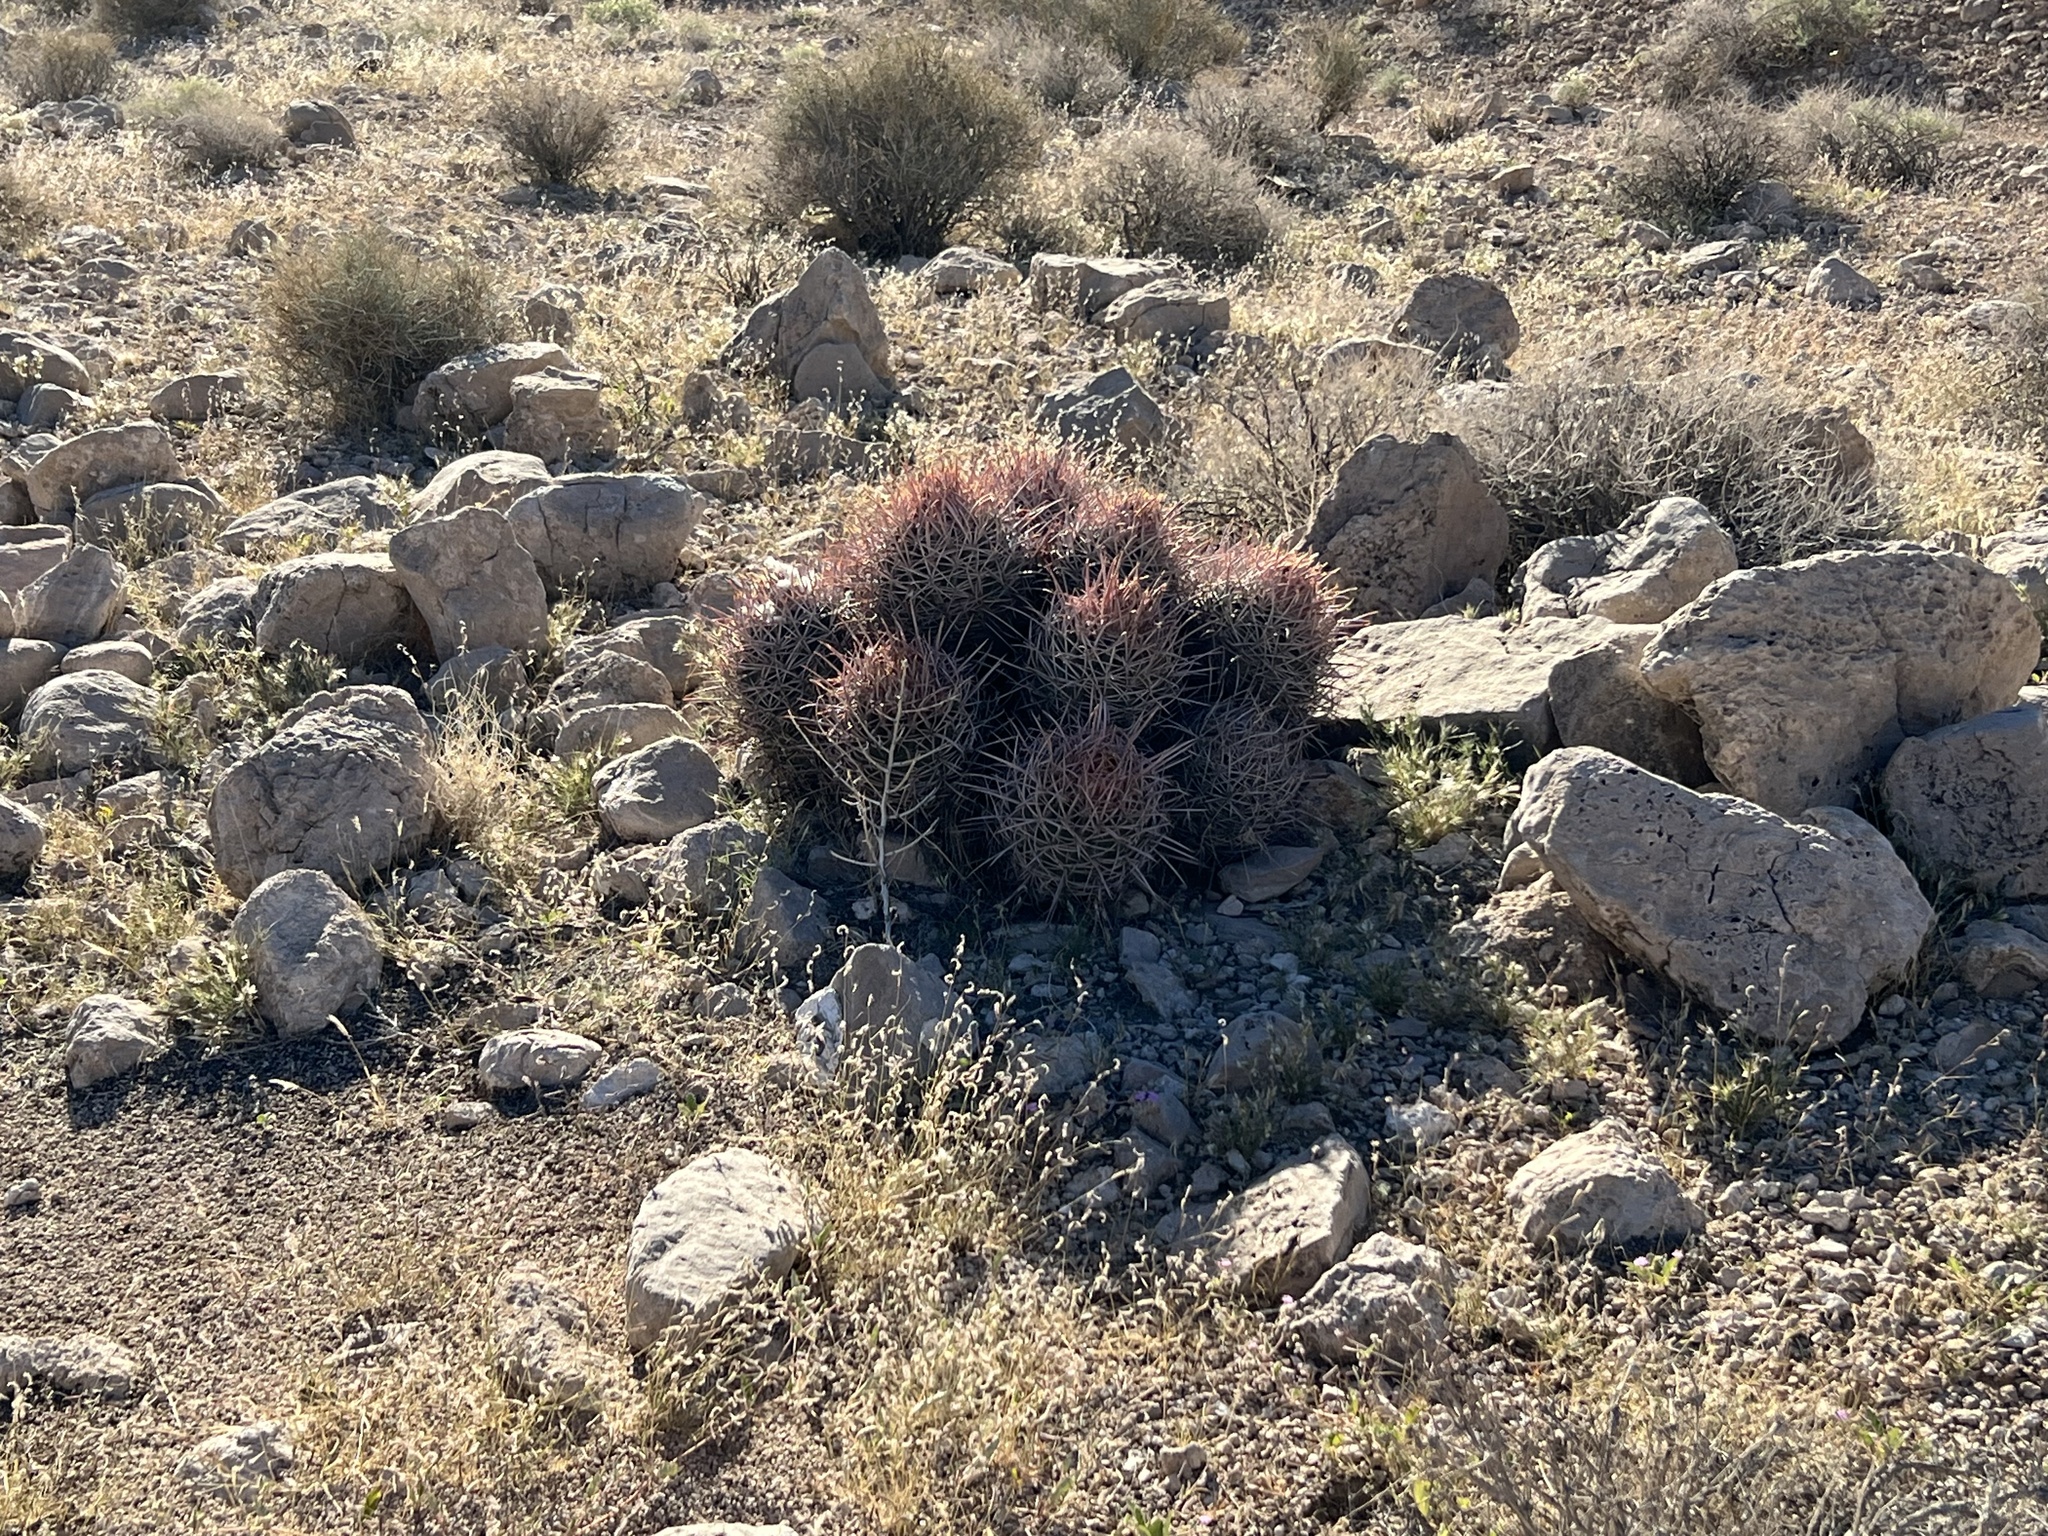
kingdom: Plantae
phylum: Tracheophyta
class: Magnoliopsida
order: Caryophyllales
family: Cactaceae
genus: Echinocactus
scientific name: Echinocactus polycephalus
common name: Cottontop cactus
